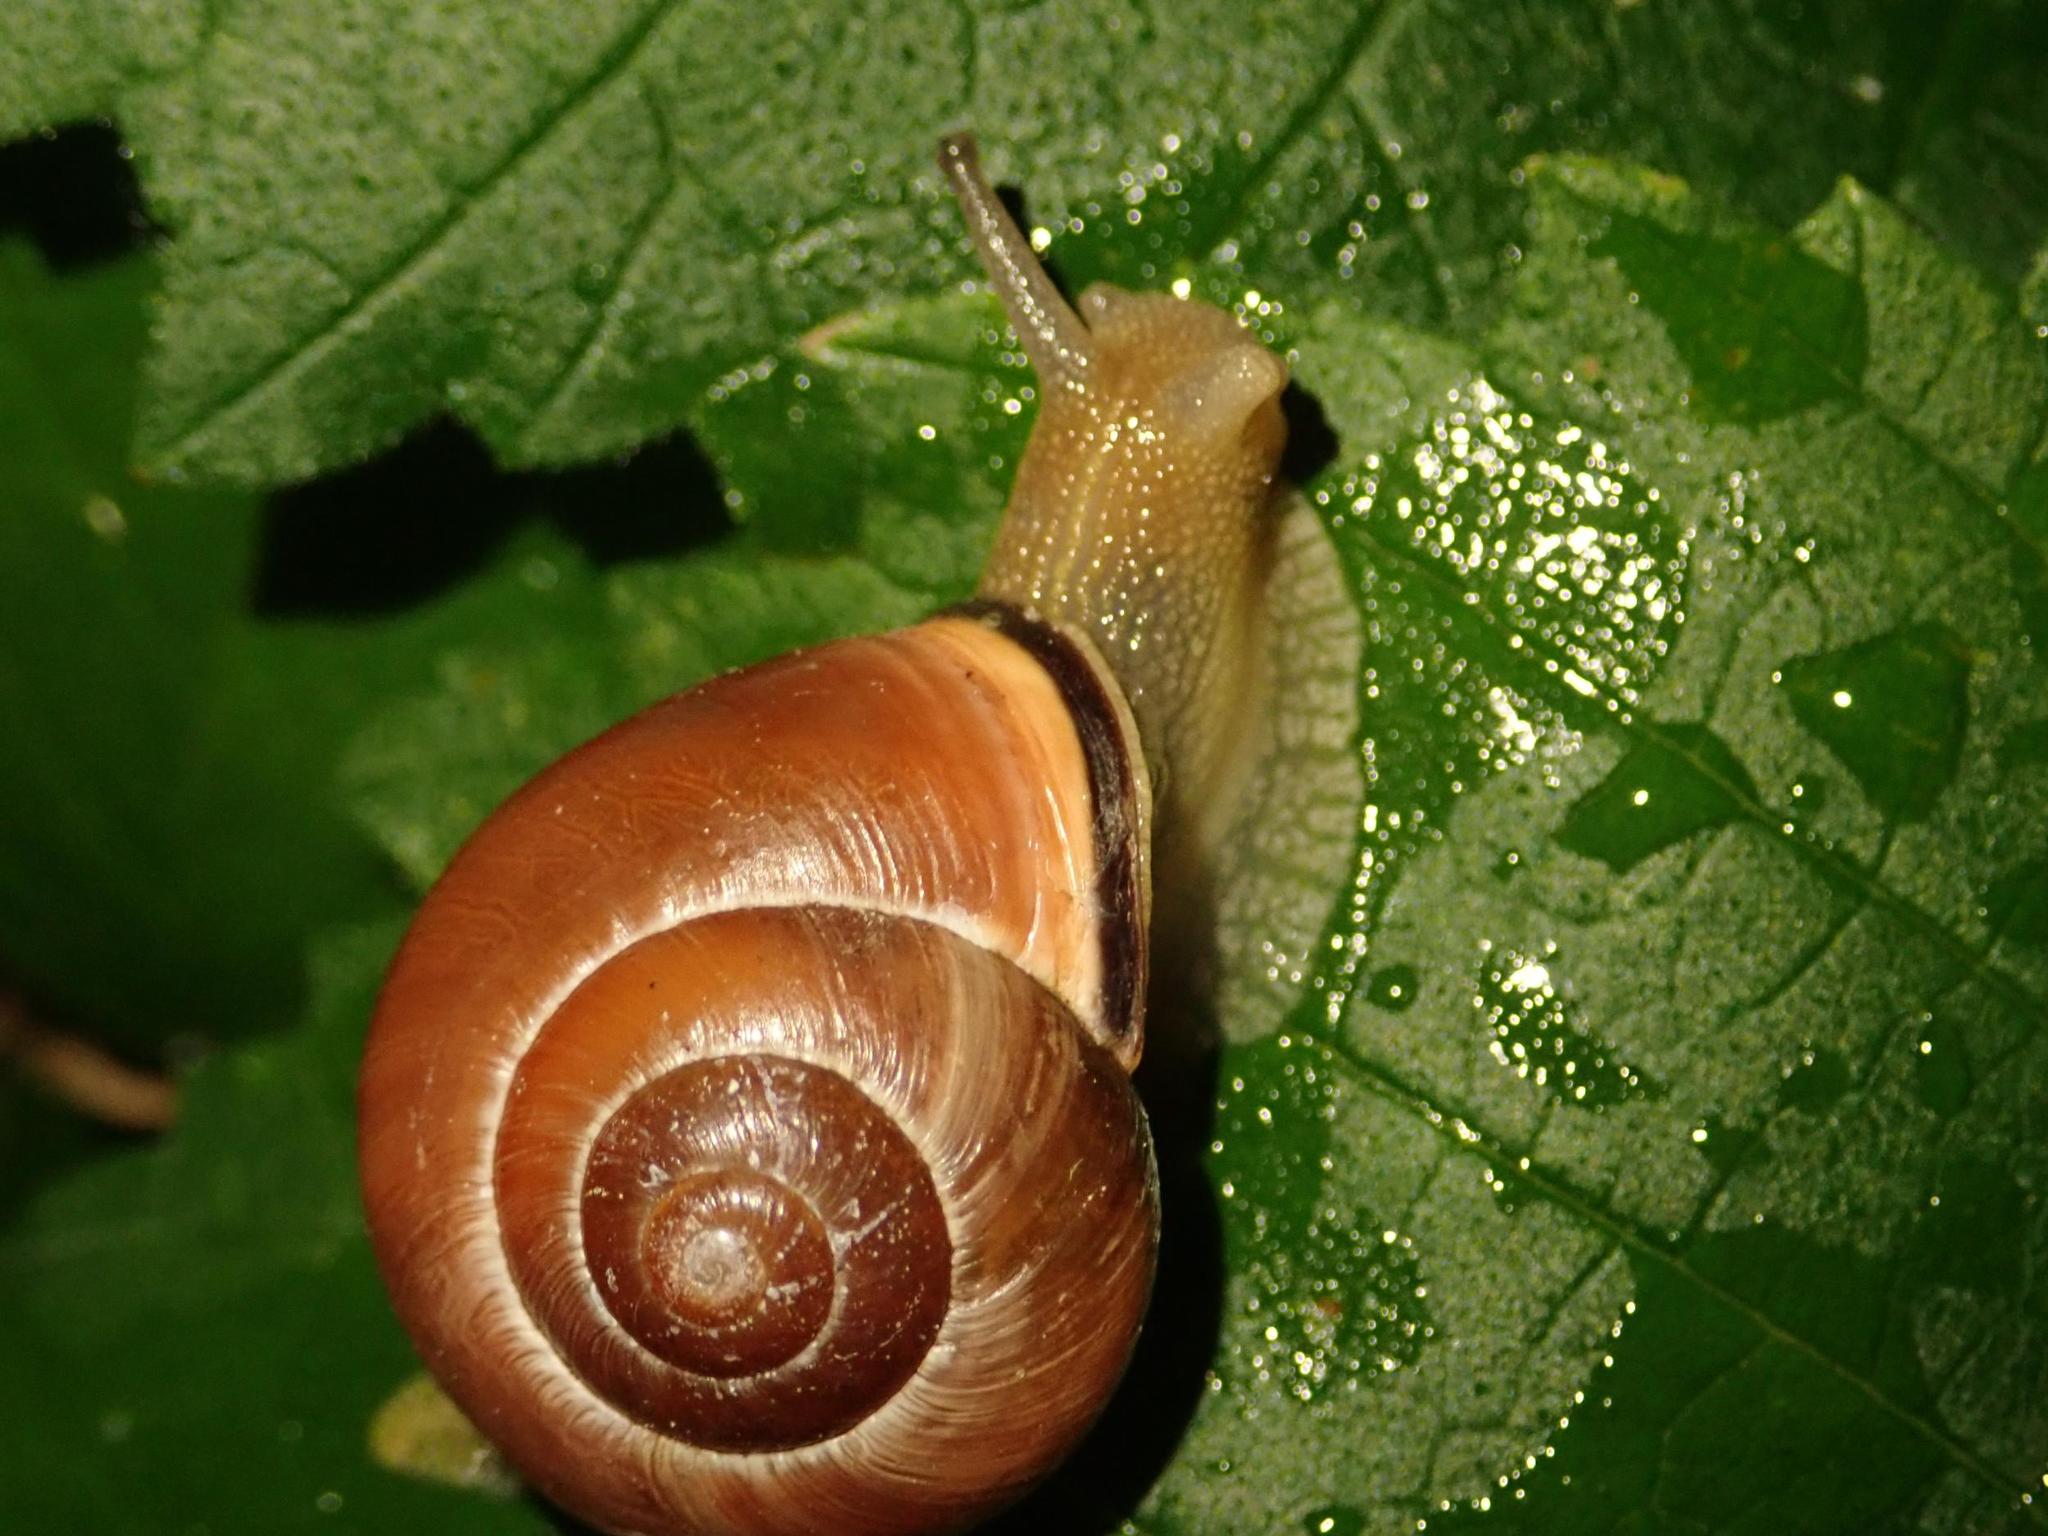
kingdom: Animalia
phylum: Mollusca
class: Gastropoda
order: Stylommatophora
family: Helicidae
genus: Cepaea
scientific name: Cepaea nemoralis
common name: Grovesnail
